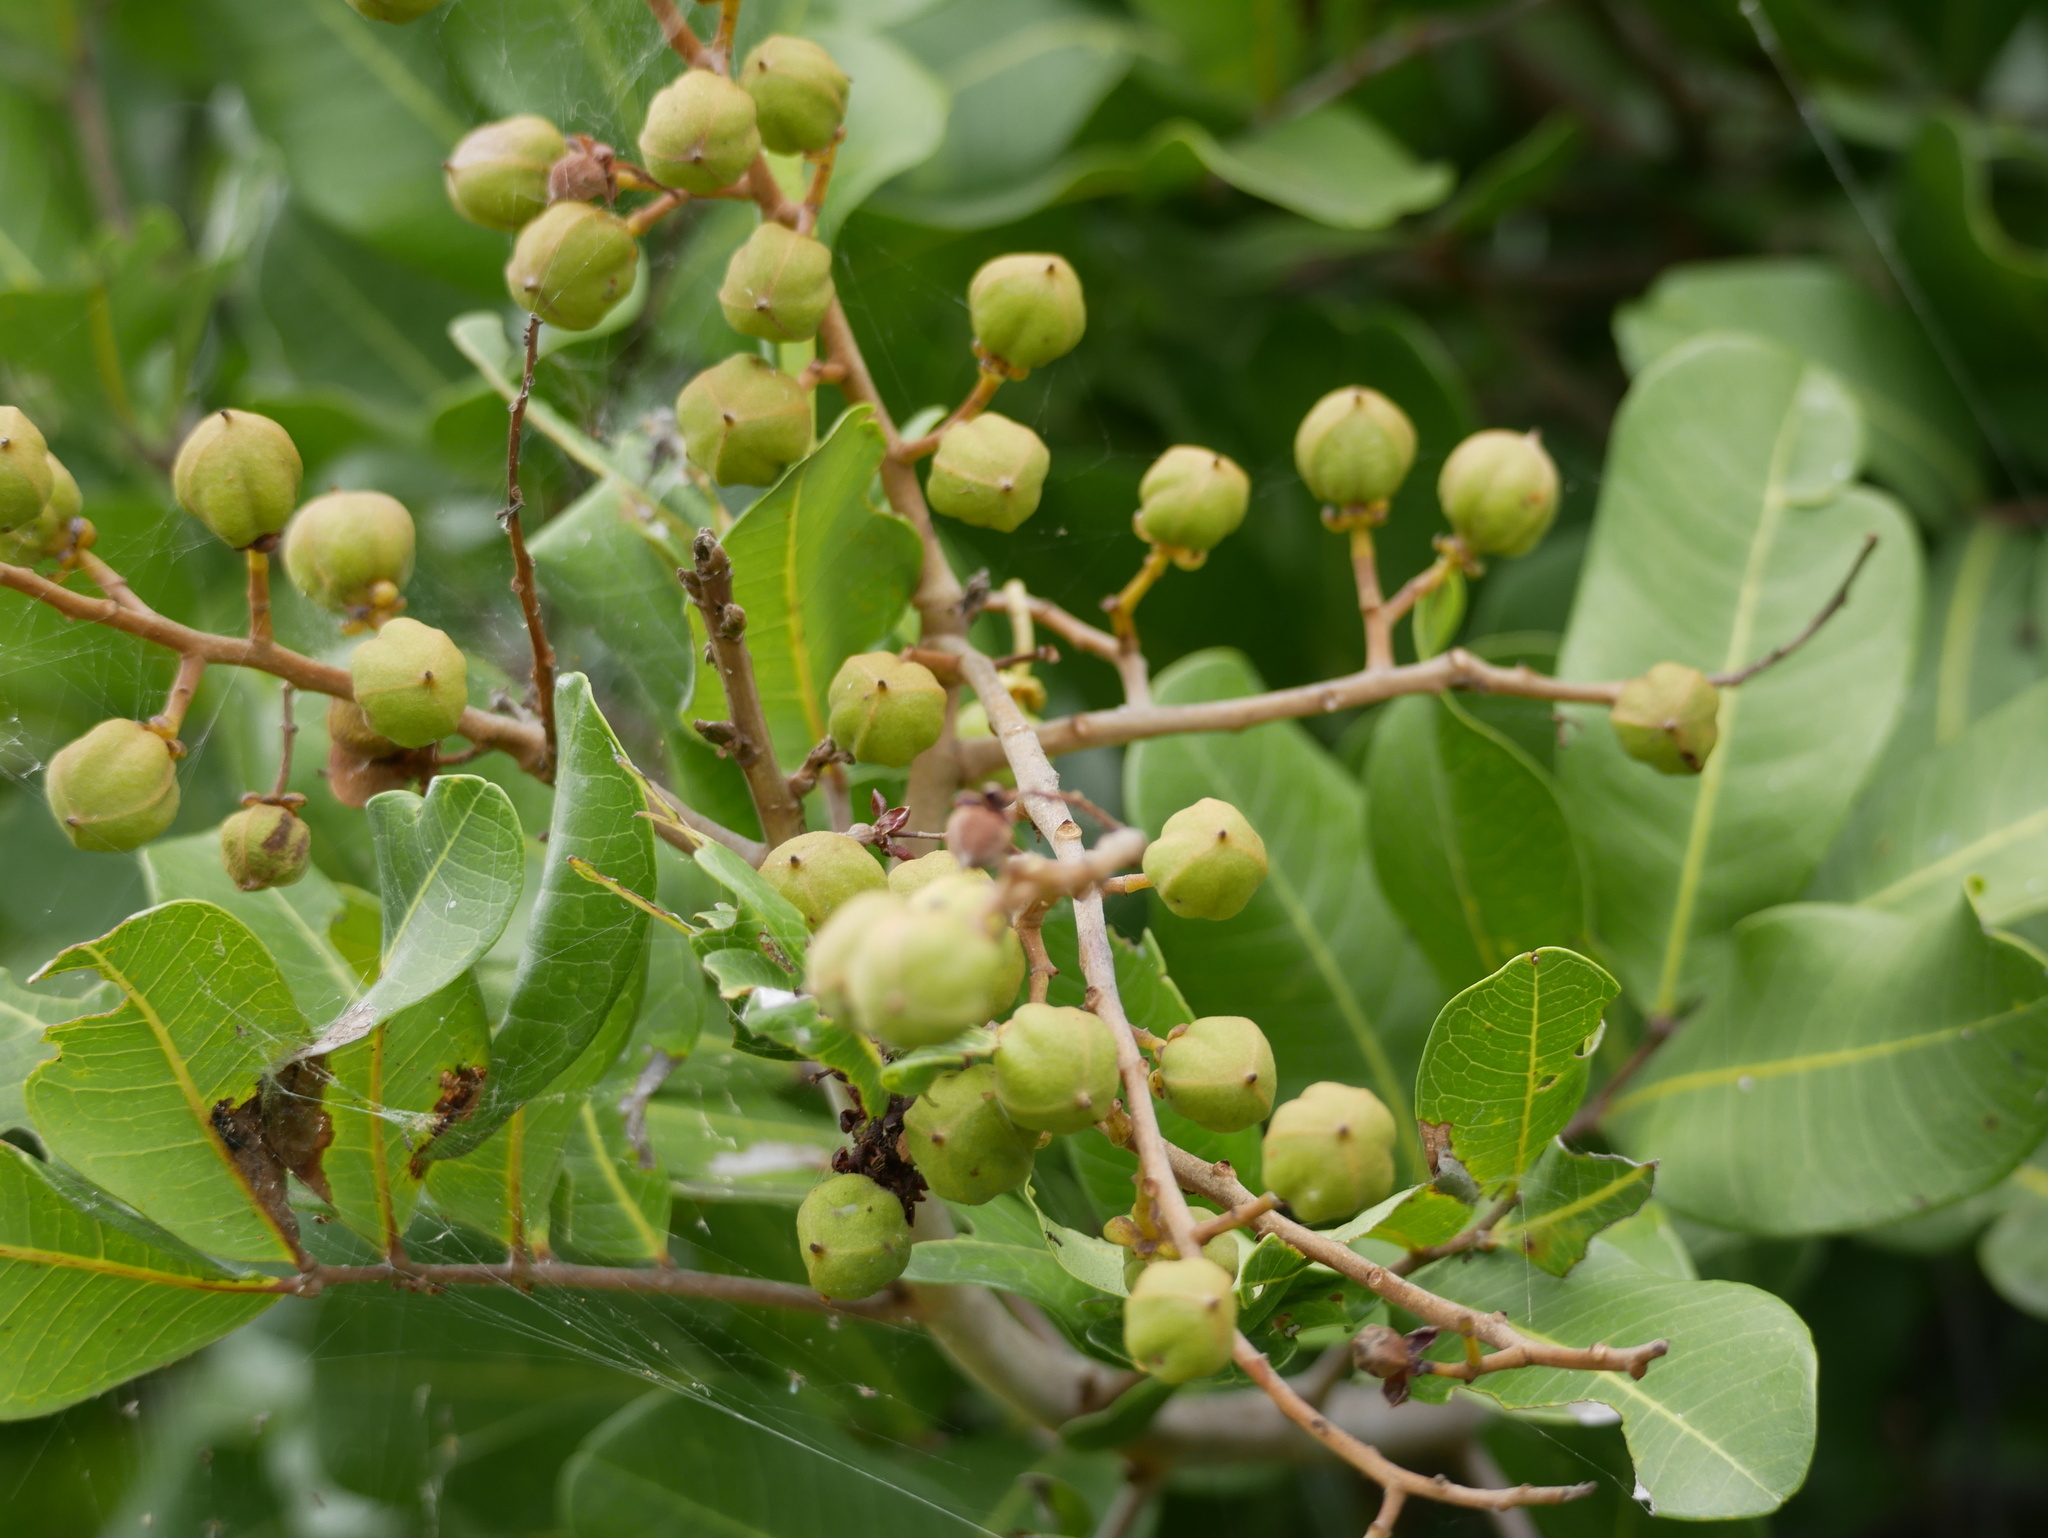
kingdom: Plantae
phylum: Tracheophyta
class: Magnoliopsida
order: Sapindales
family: Sapindaceae
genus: Cupaniopsis
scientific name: Cupaniopsis anacardioides
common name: Carrotwood
